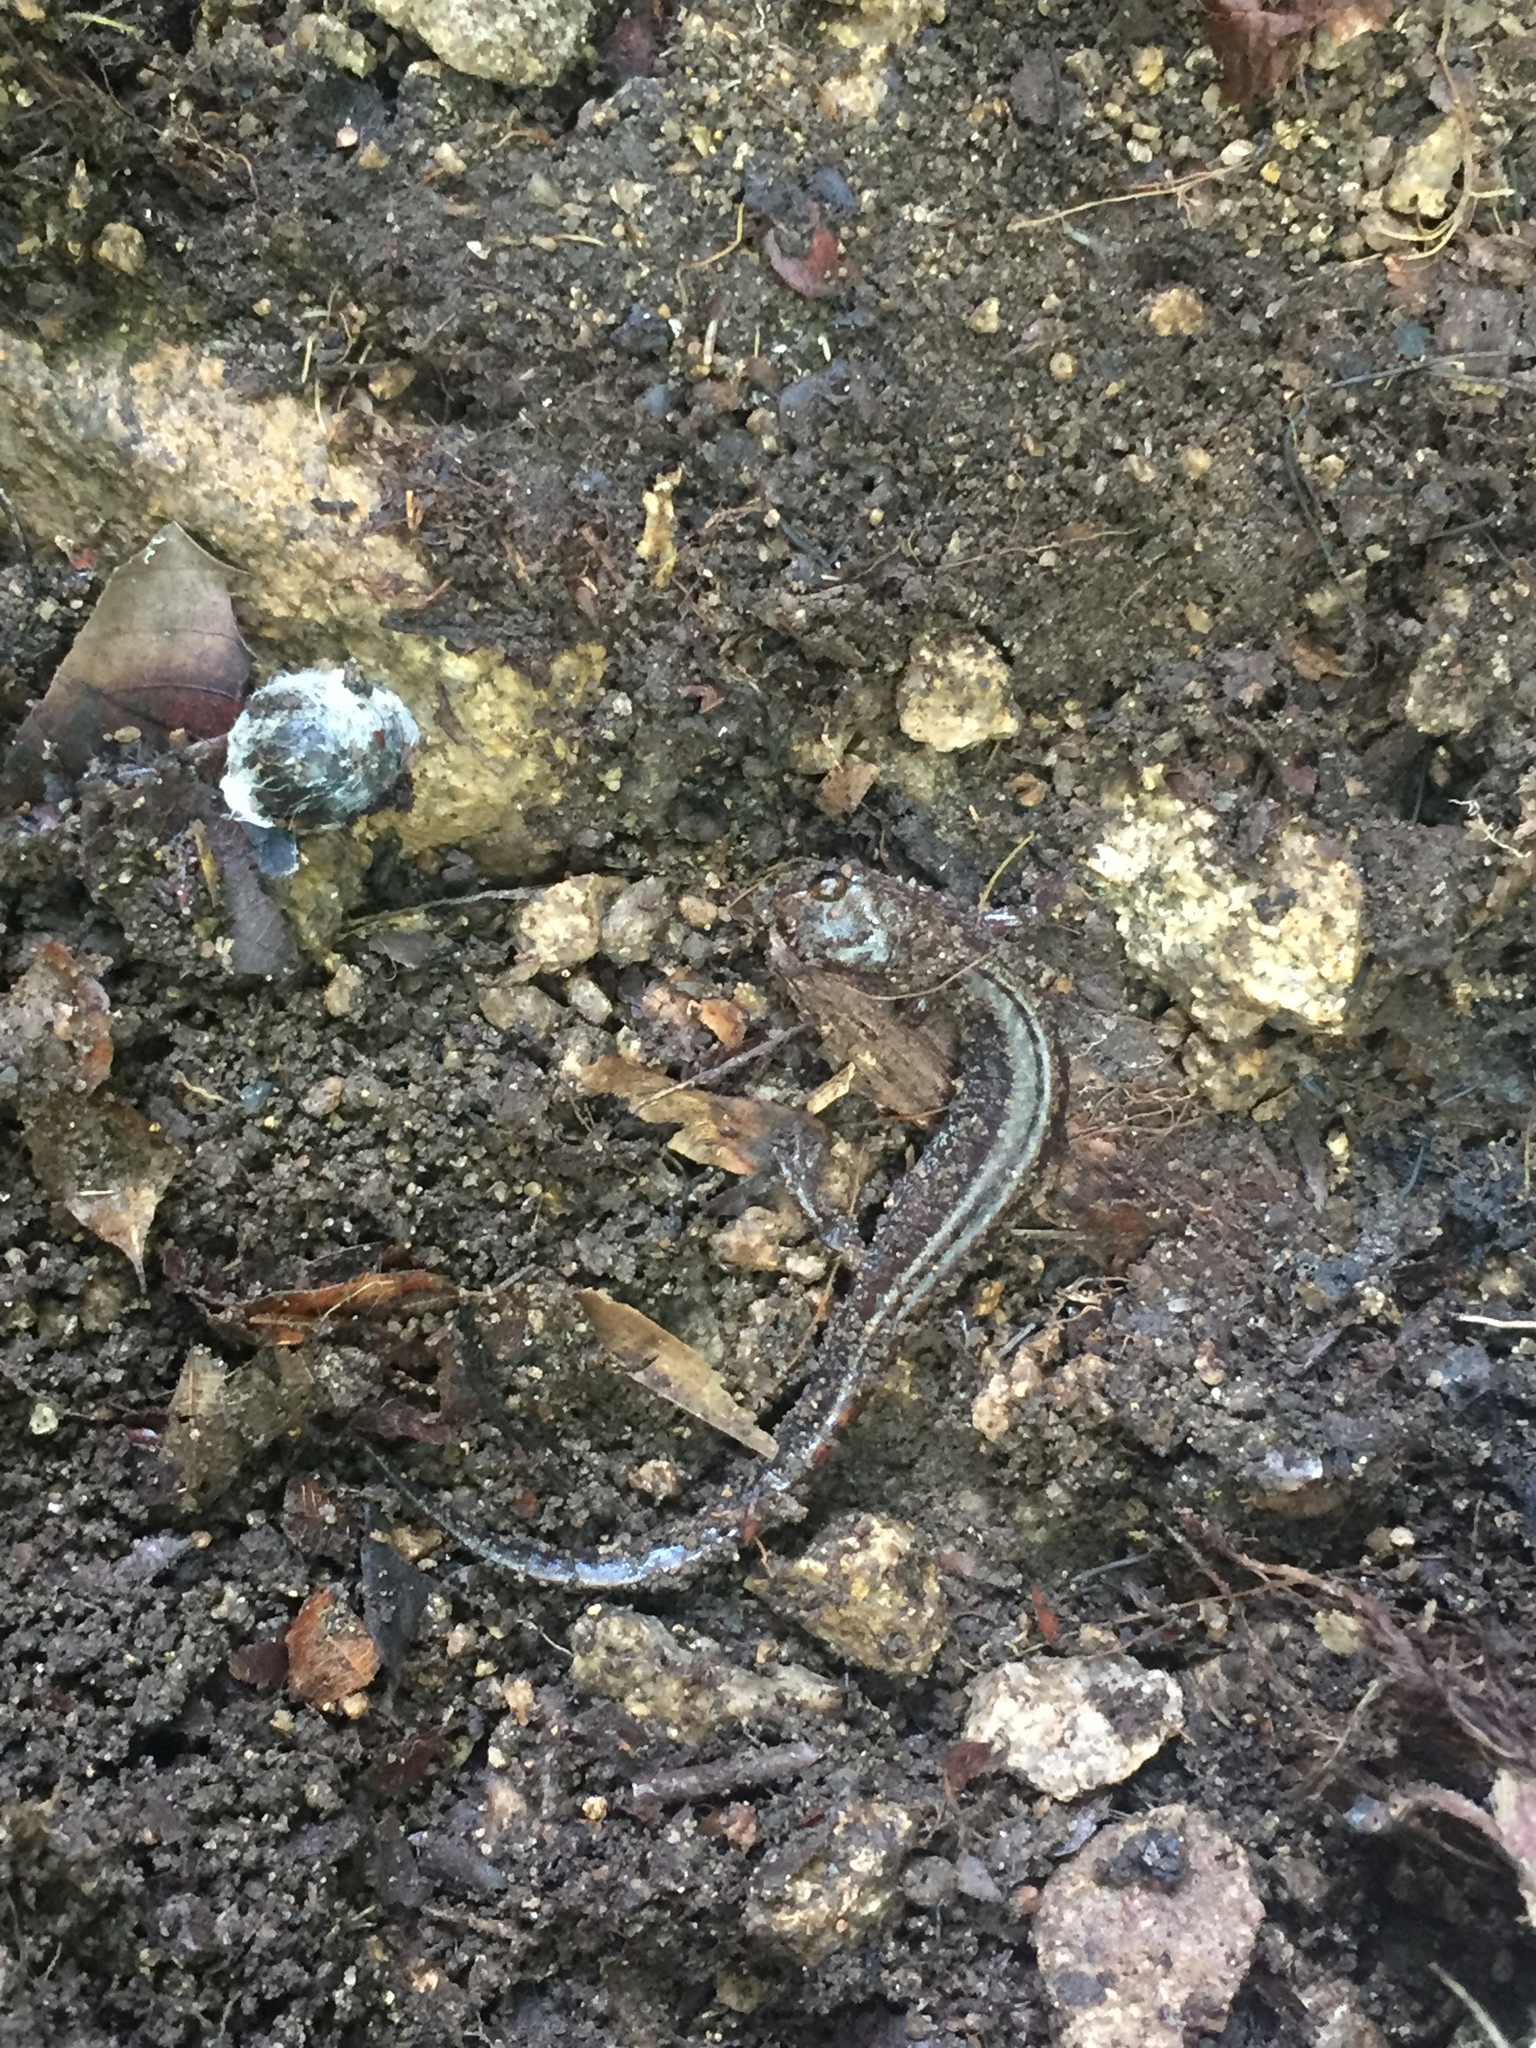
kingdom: Animalia
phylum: Chordata
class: Amphibia
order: Caudata
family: Plethodontidae
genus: Karsenia
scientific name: Karsenia koreana
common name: Korean crevice salamander
